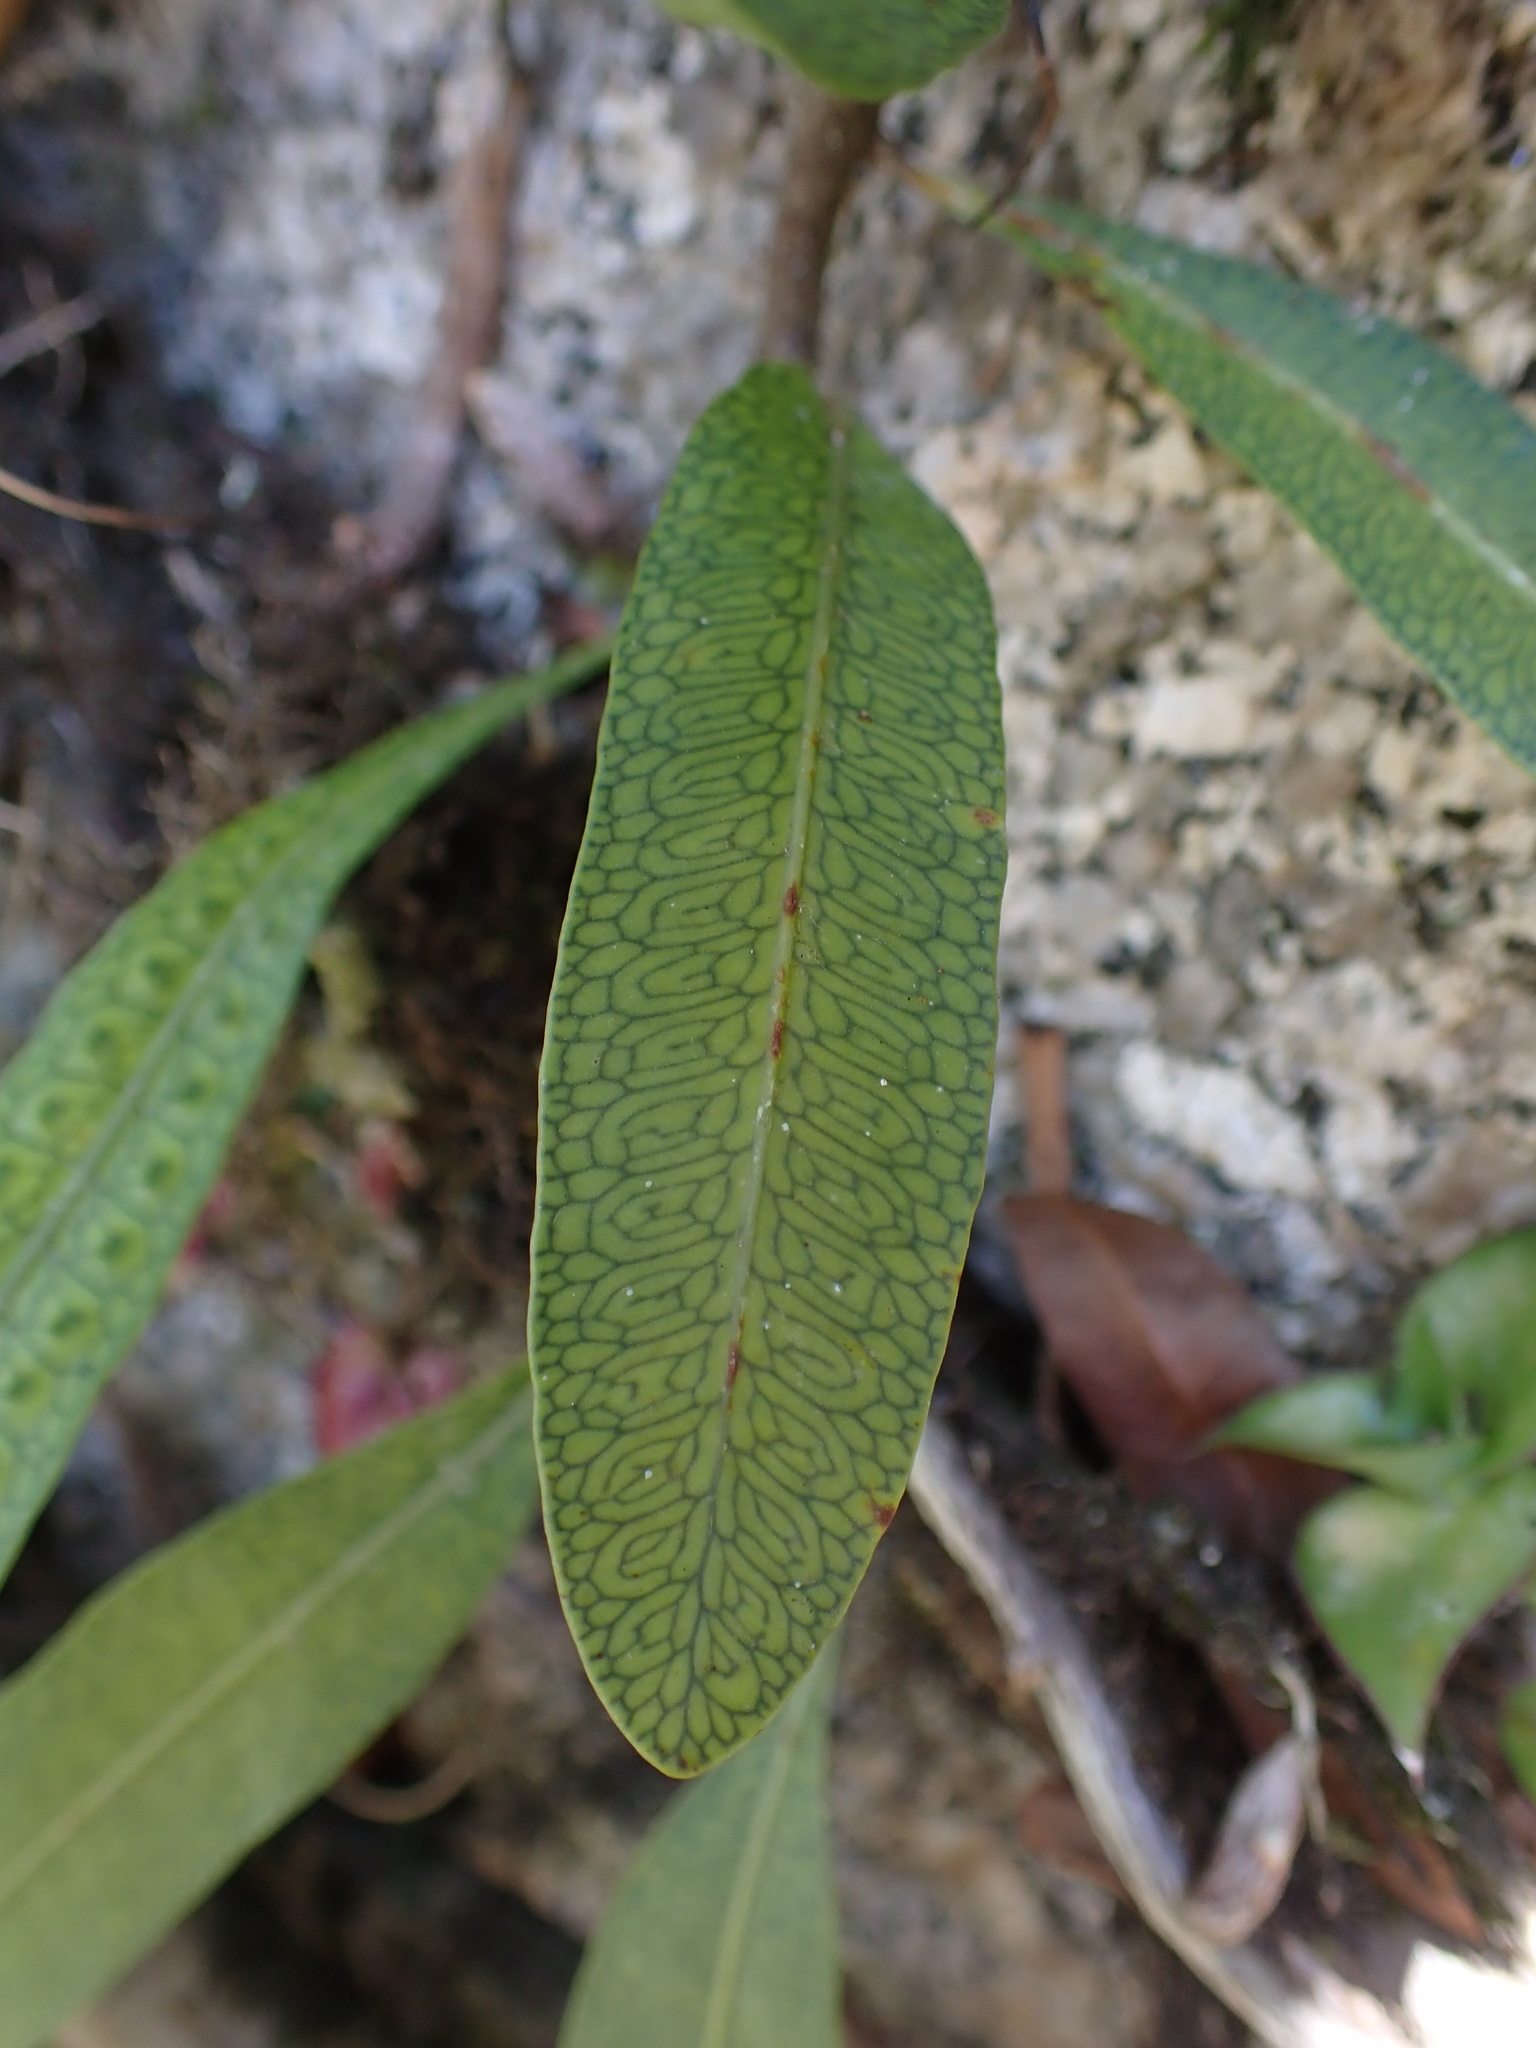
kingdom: Plantae
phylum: Tracheophyta
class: Polypodiopsida
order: Polypodiales
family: Polypodiaceae
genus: Microgramma
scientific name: Microgramma squamulosa
